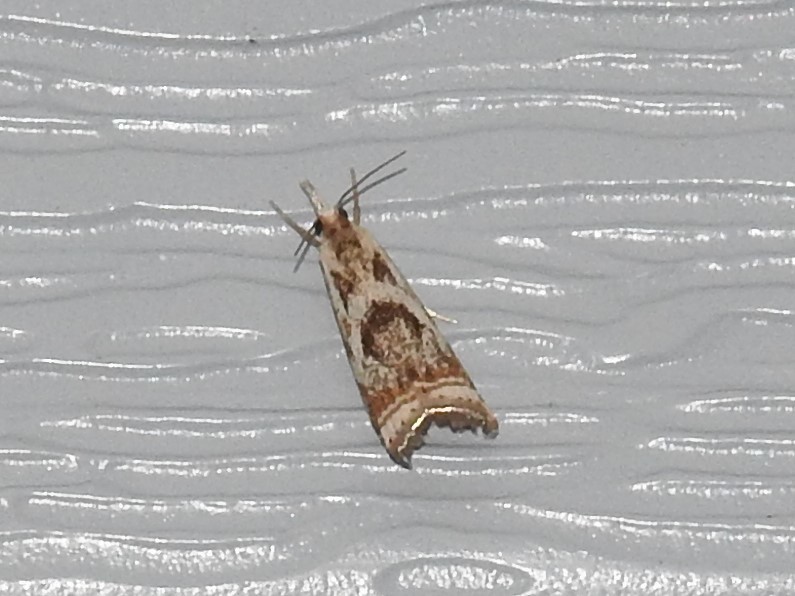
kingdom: Animalia
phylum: Arthropoda
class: Insecta
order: Lepidoptera
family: Crambidae
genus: Microcrambus
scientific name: Microcrambus elegans
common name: Elegant grass-veneer
